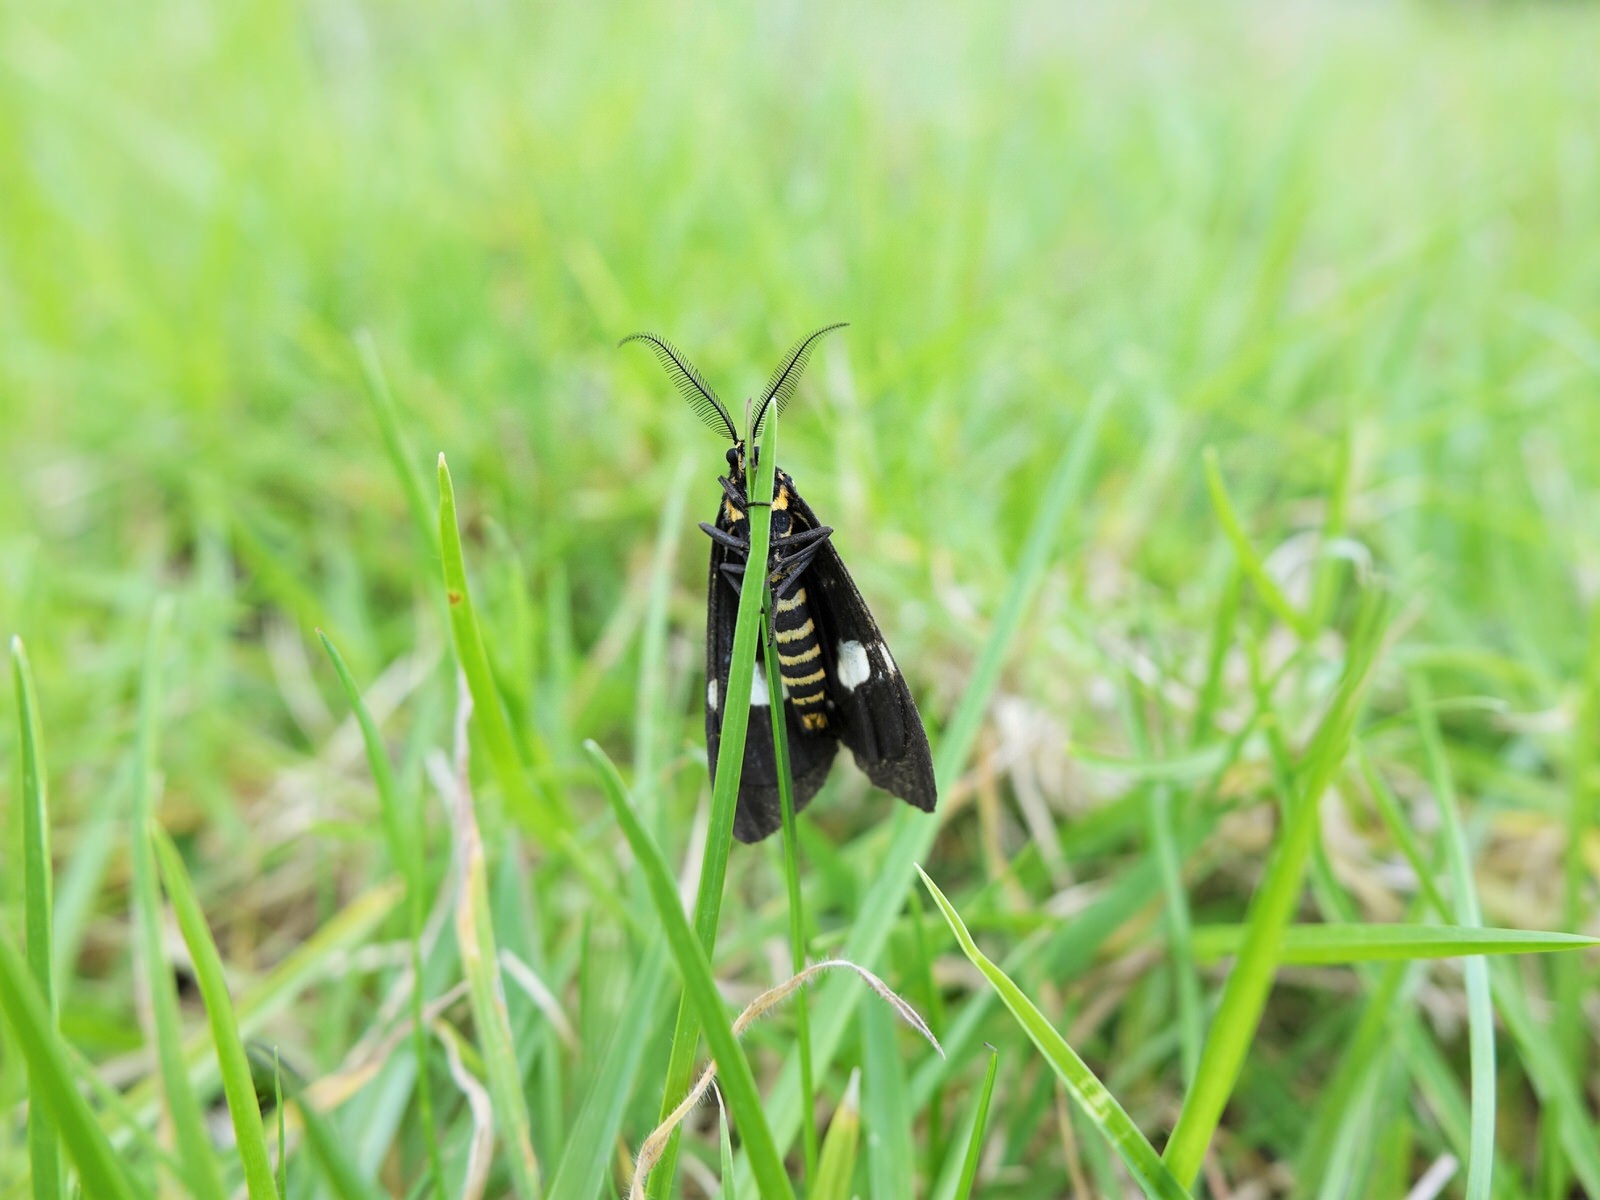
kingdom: Animalia
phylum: Arthropoda
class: Insecta
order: Lepidoptera
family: Erebidae
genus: Nyctemera
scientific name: Nyctemera annulatum
